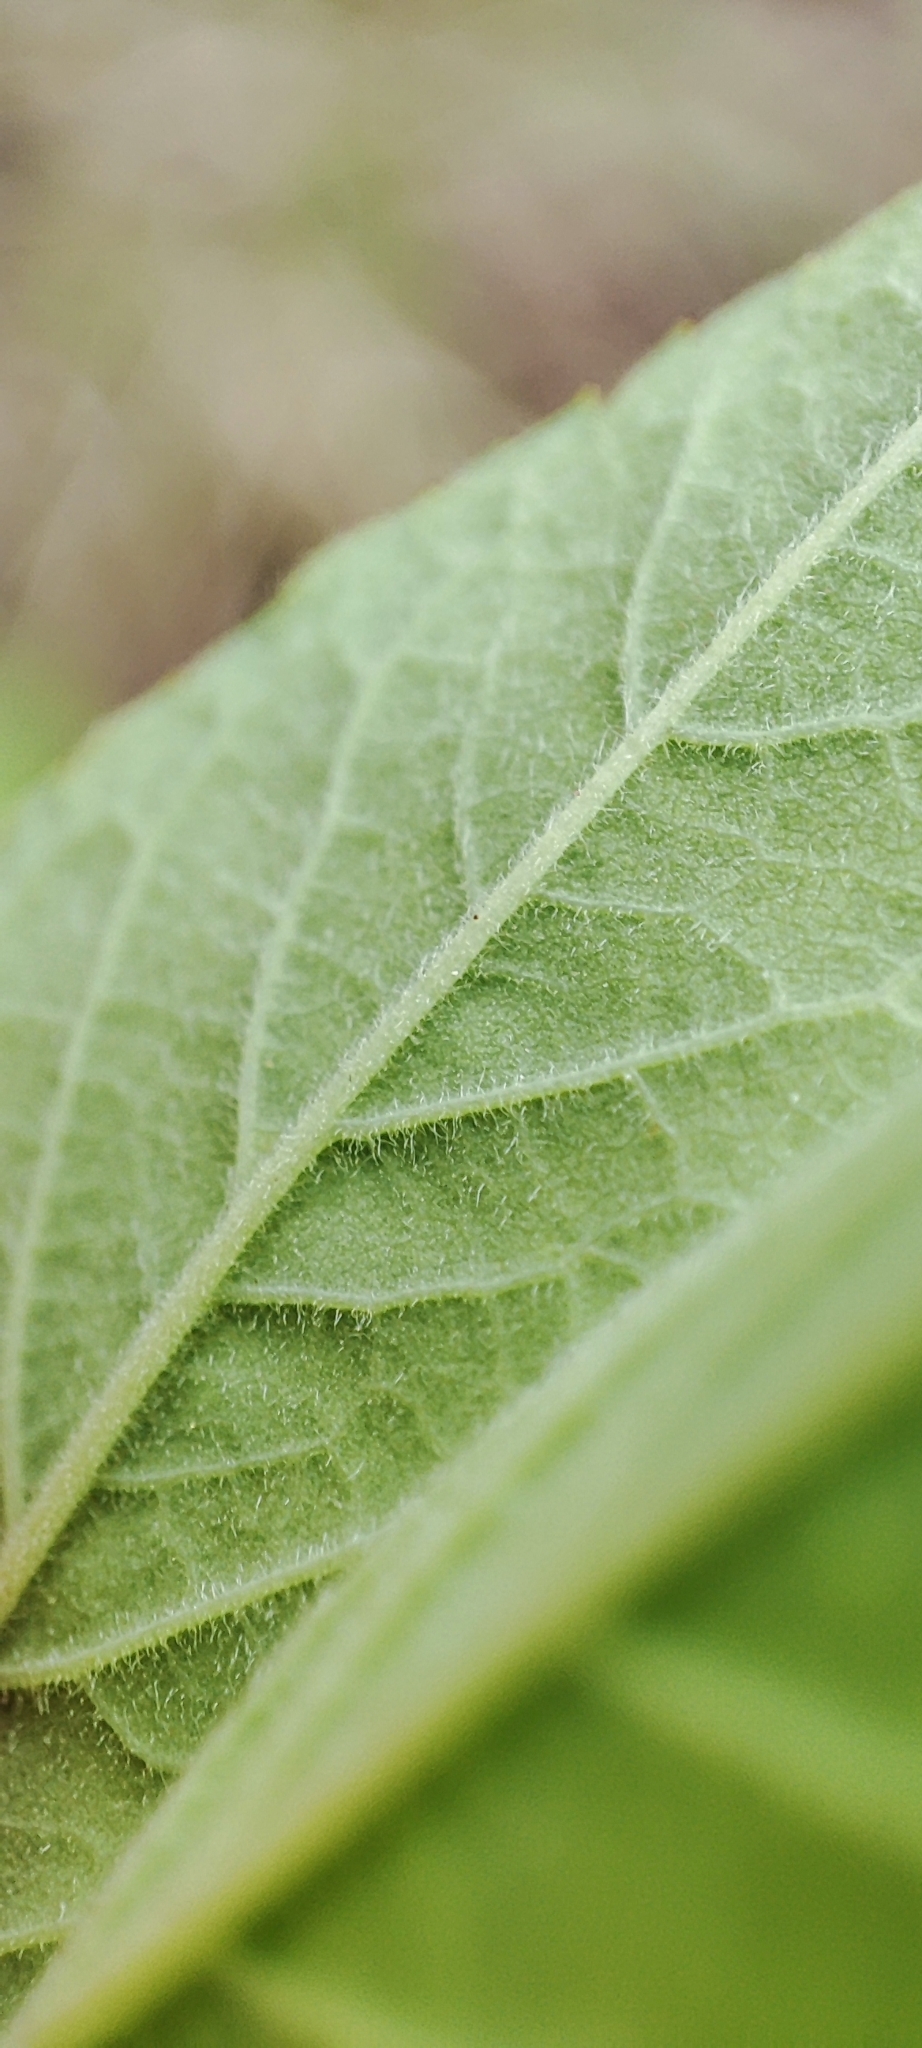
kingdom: Plantae
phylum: Tracheophyta
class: Magnoliopsida
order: Rosales
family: Rosaceae
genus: Rosa
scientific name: Rosa majalis
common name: Cinnamon rose
